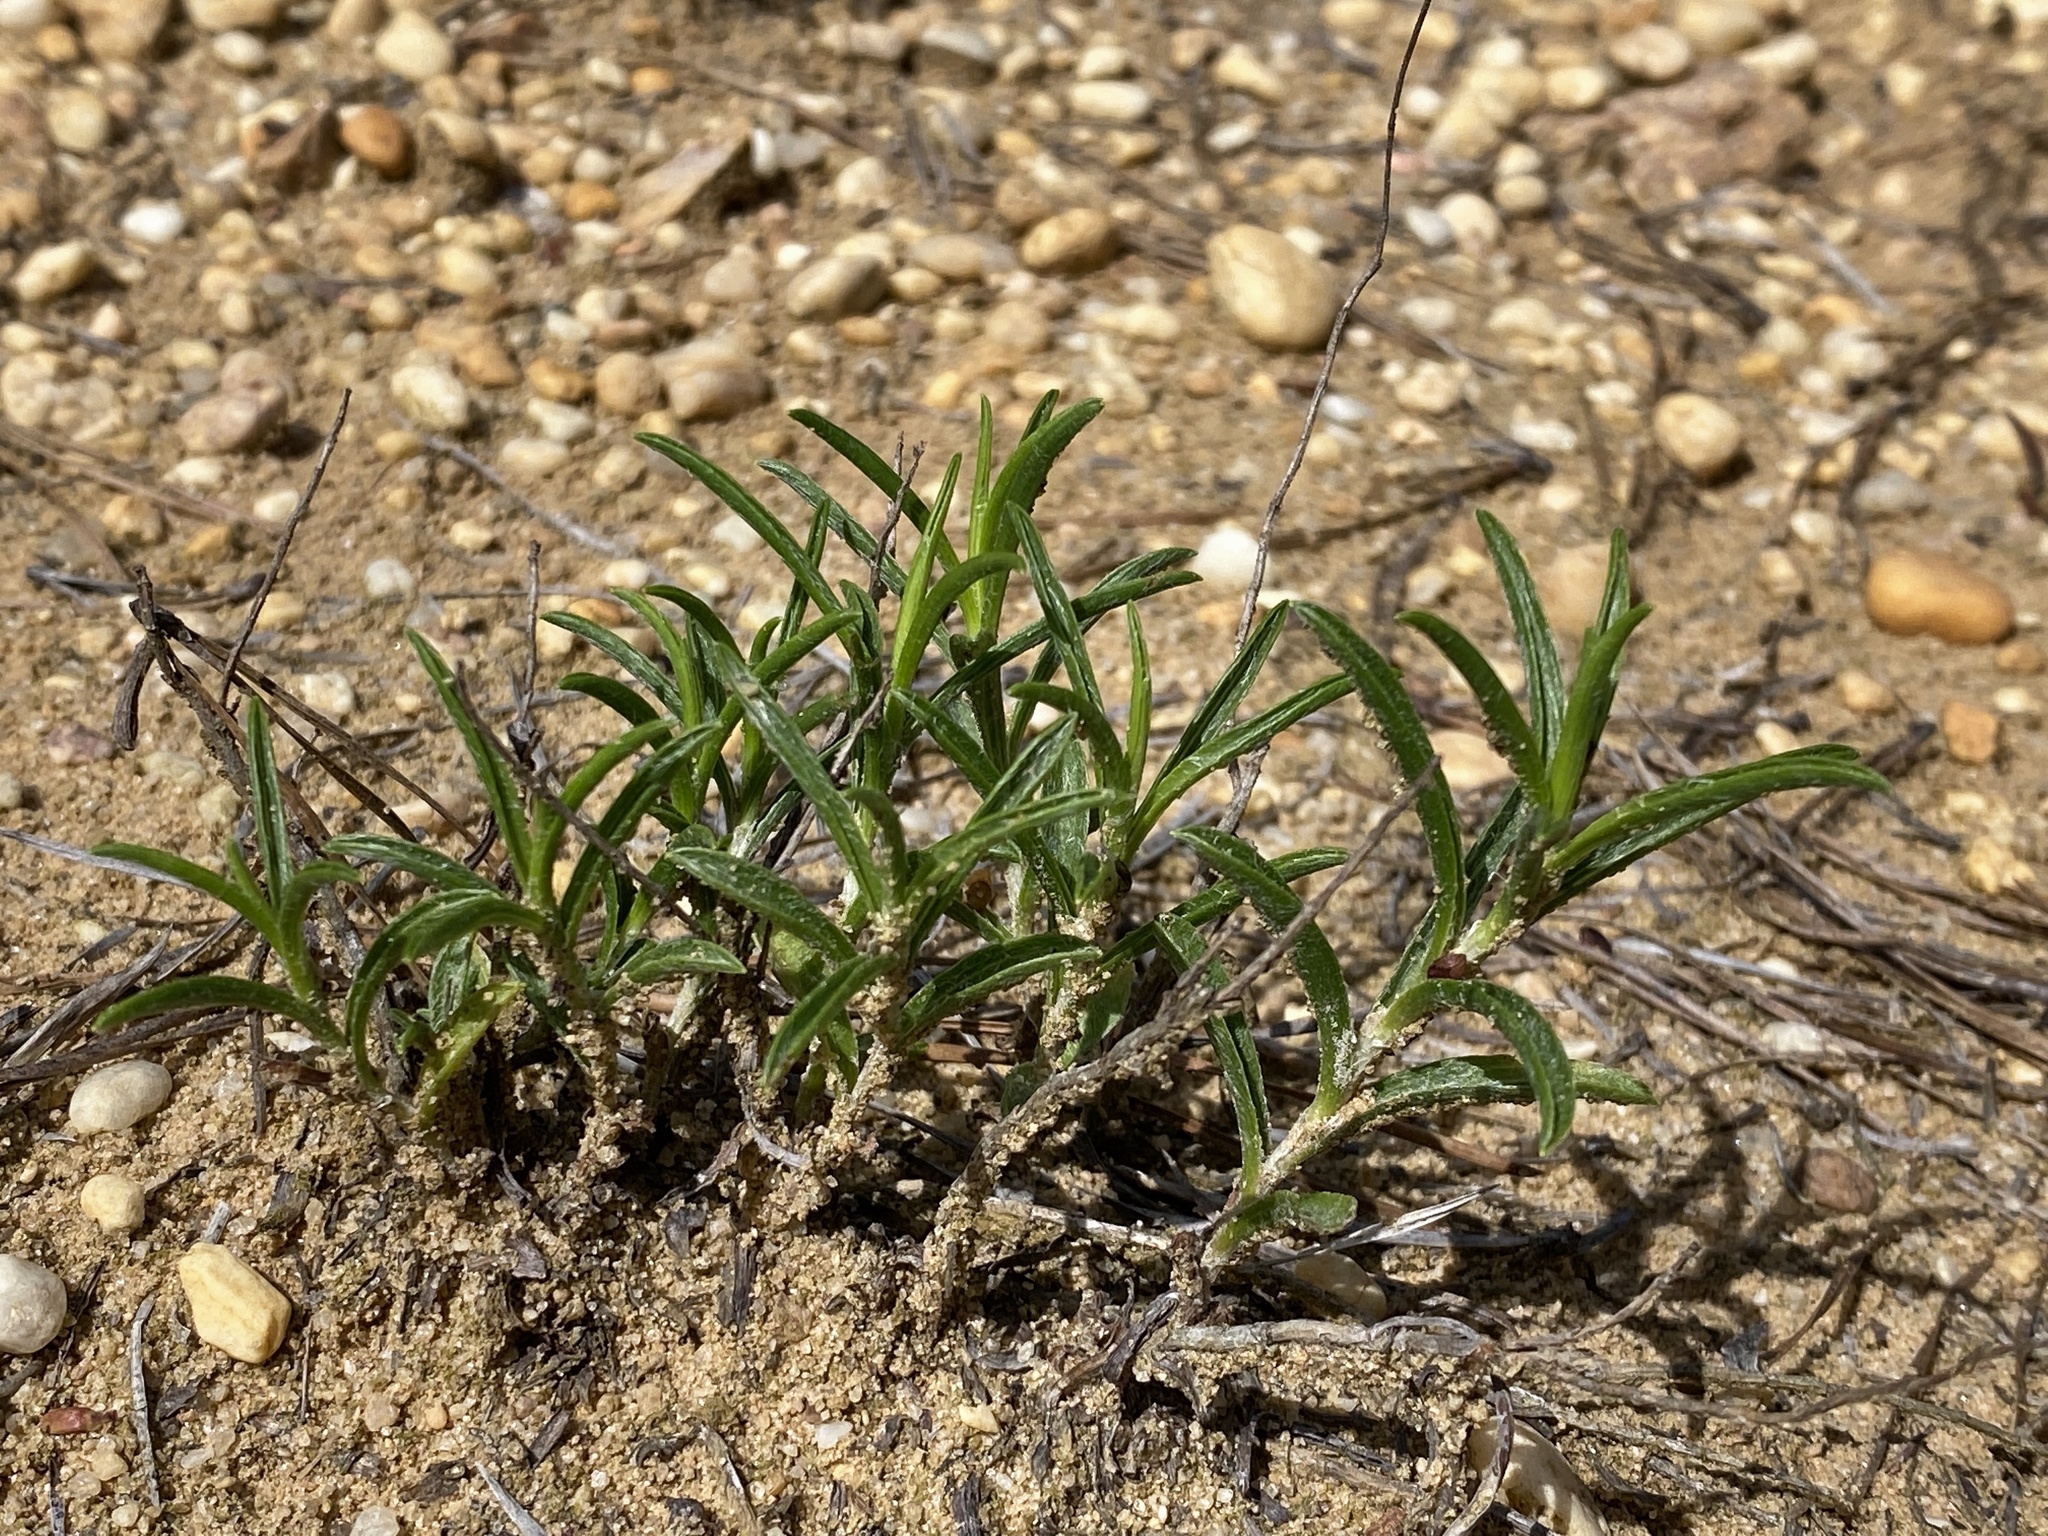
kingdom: Plantae
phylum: Tracheophyta
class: Magnoliopsida
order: Asterales
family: Asteraceae
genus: Pityopsis
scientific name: Pityopsis falcata
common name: Sickle-leaved goldenaster
